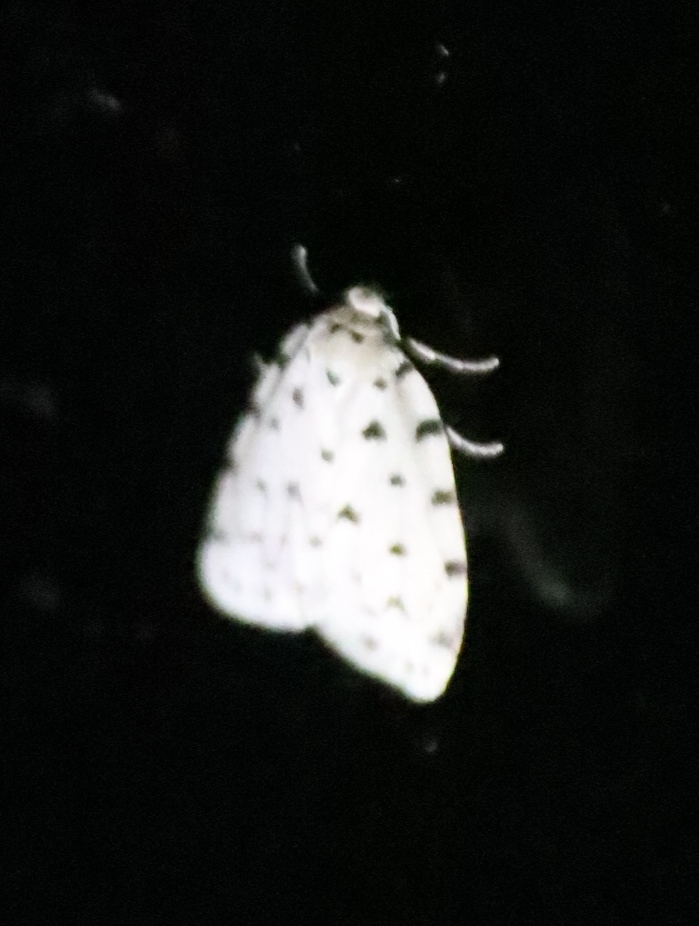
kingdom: Animalia
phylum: Arthropoda
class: Insecta
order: Lepidoptera
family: Erebidae
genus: Siccia
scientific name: Siccia caffra
